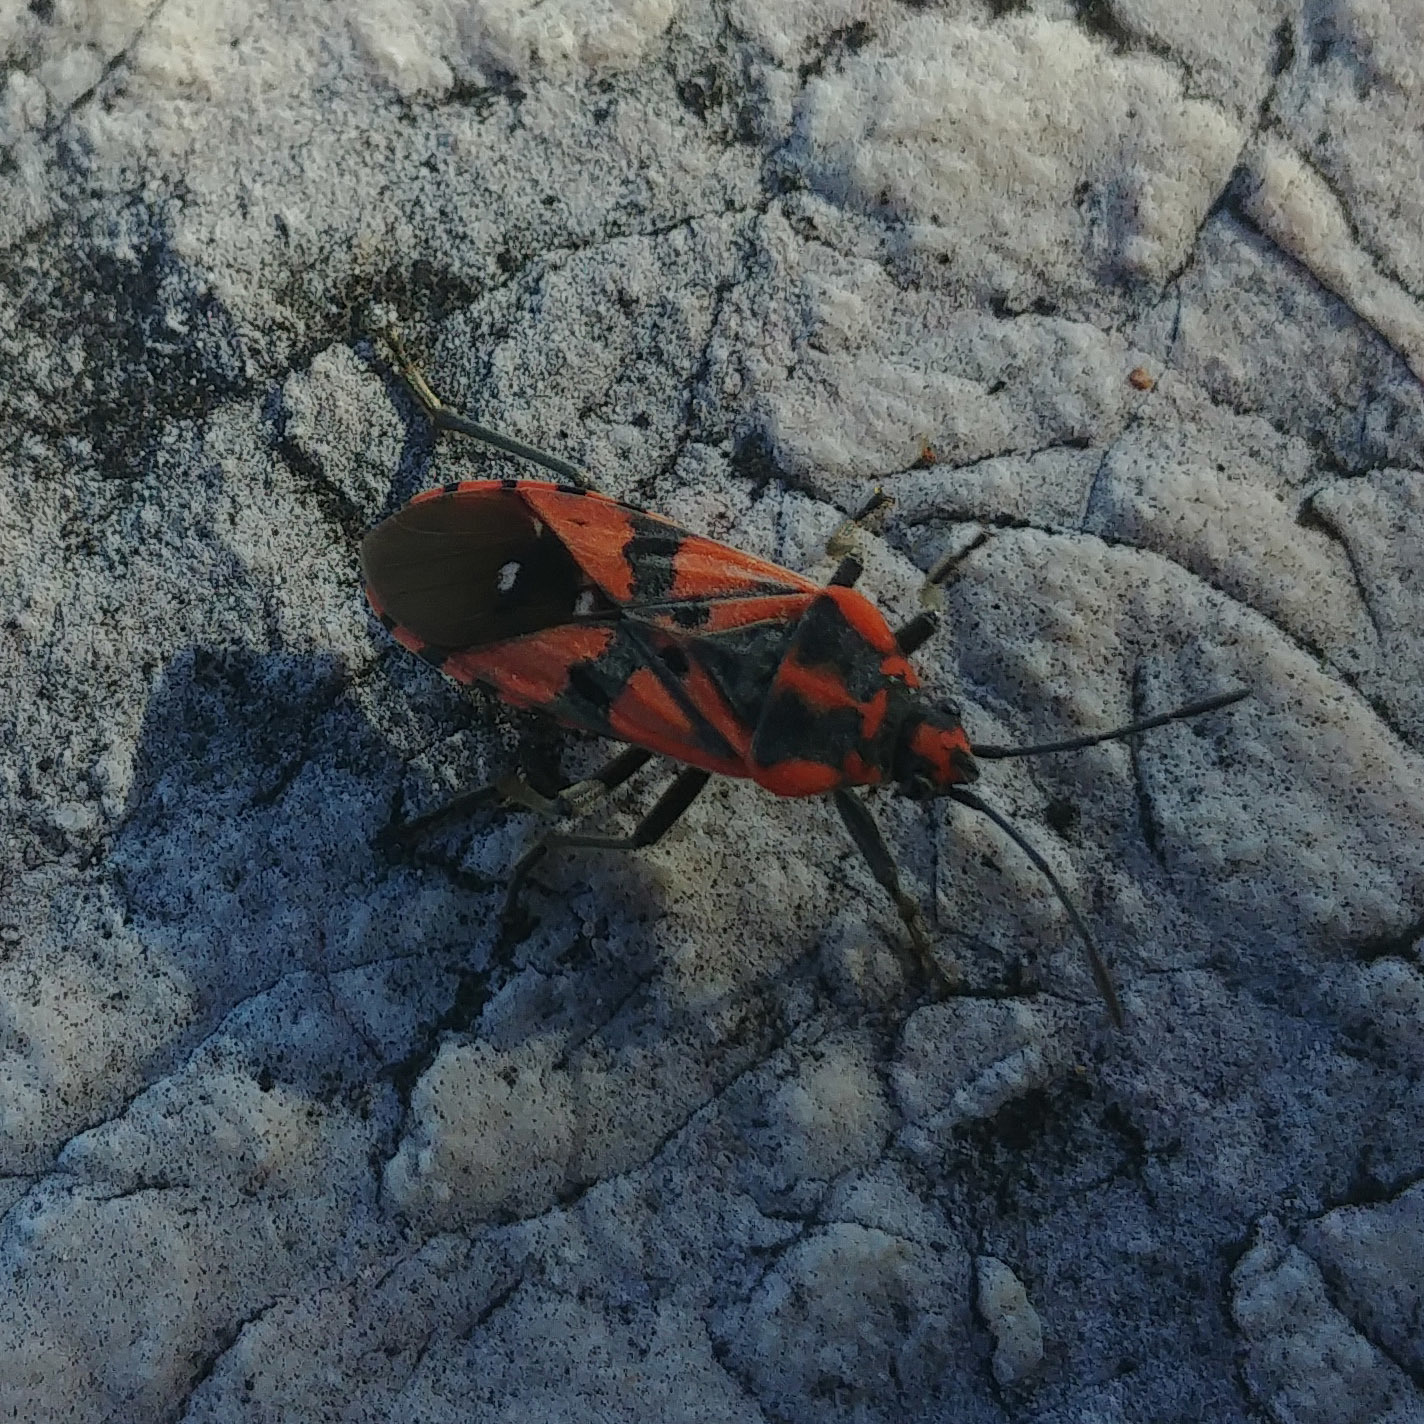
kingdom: Animalia
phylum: Arthropoda
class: Insecta
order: Hemiptera
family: Lygaeidae
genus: Spilostethus
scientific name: Spilostethus pandurus
